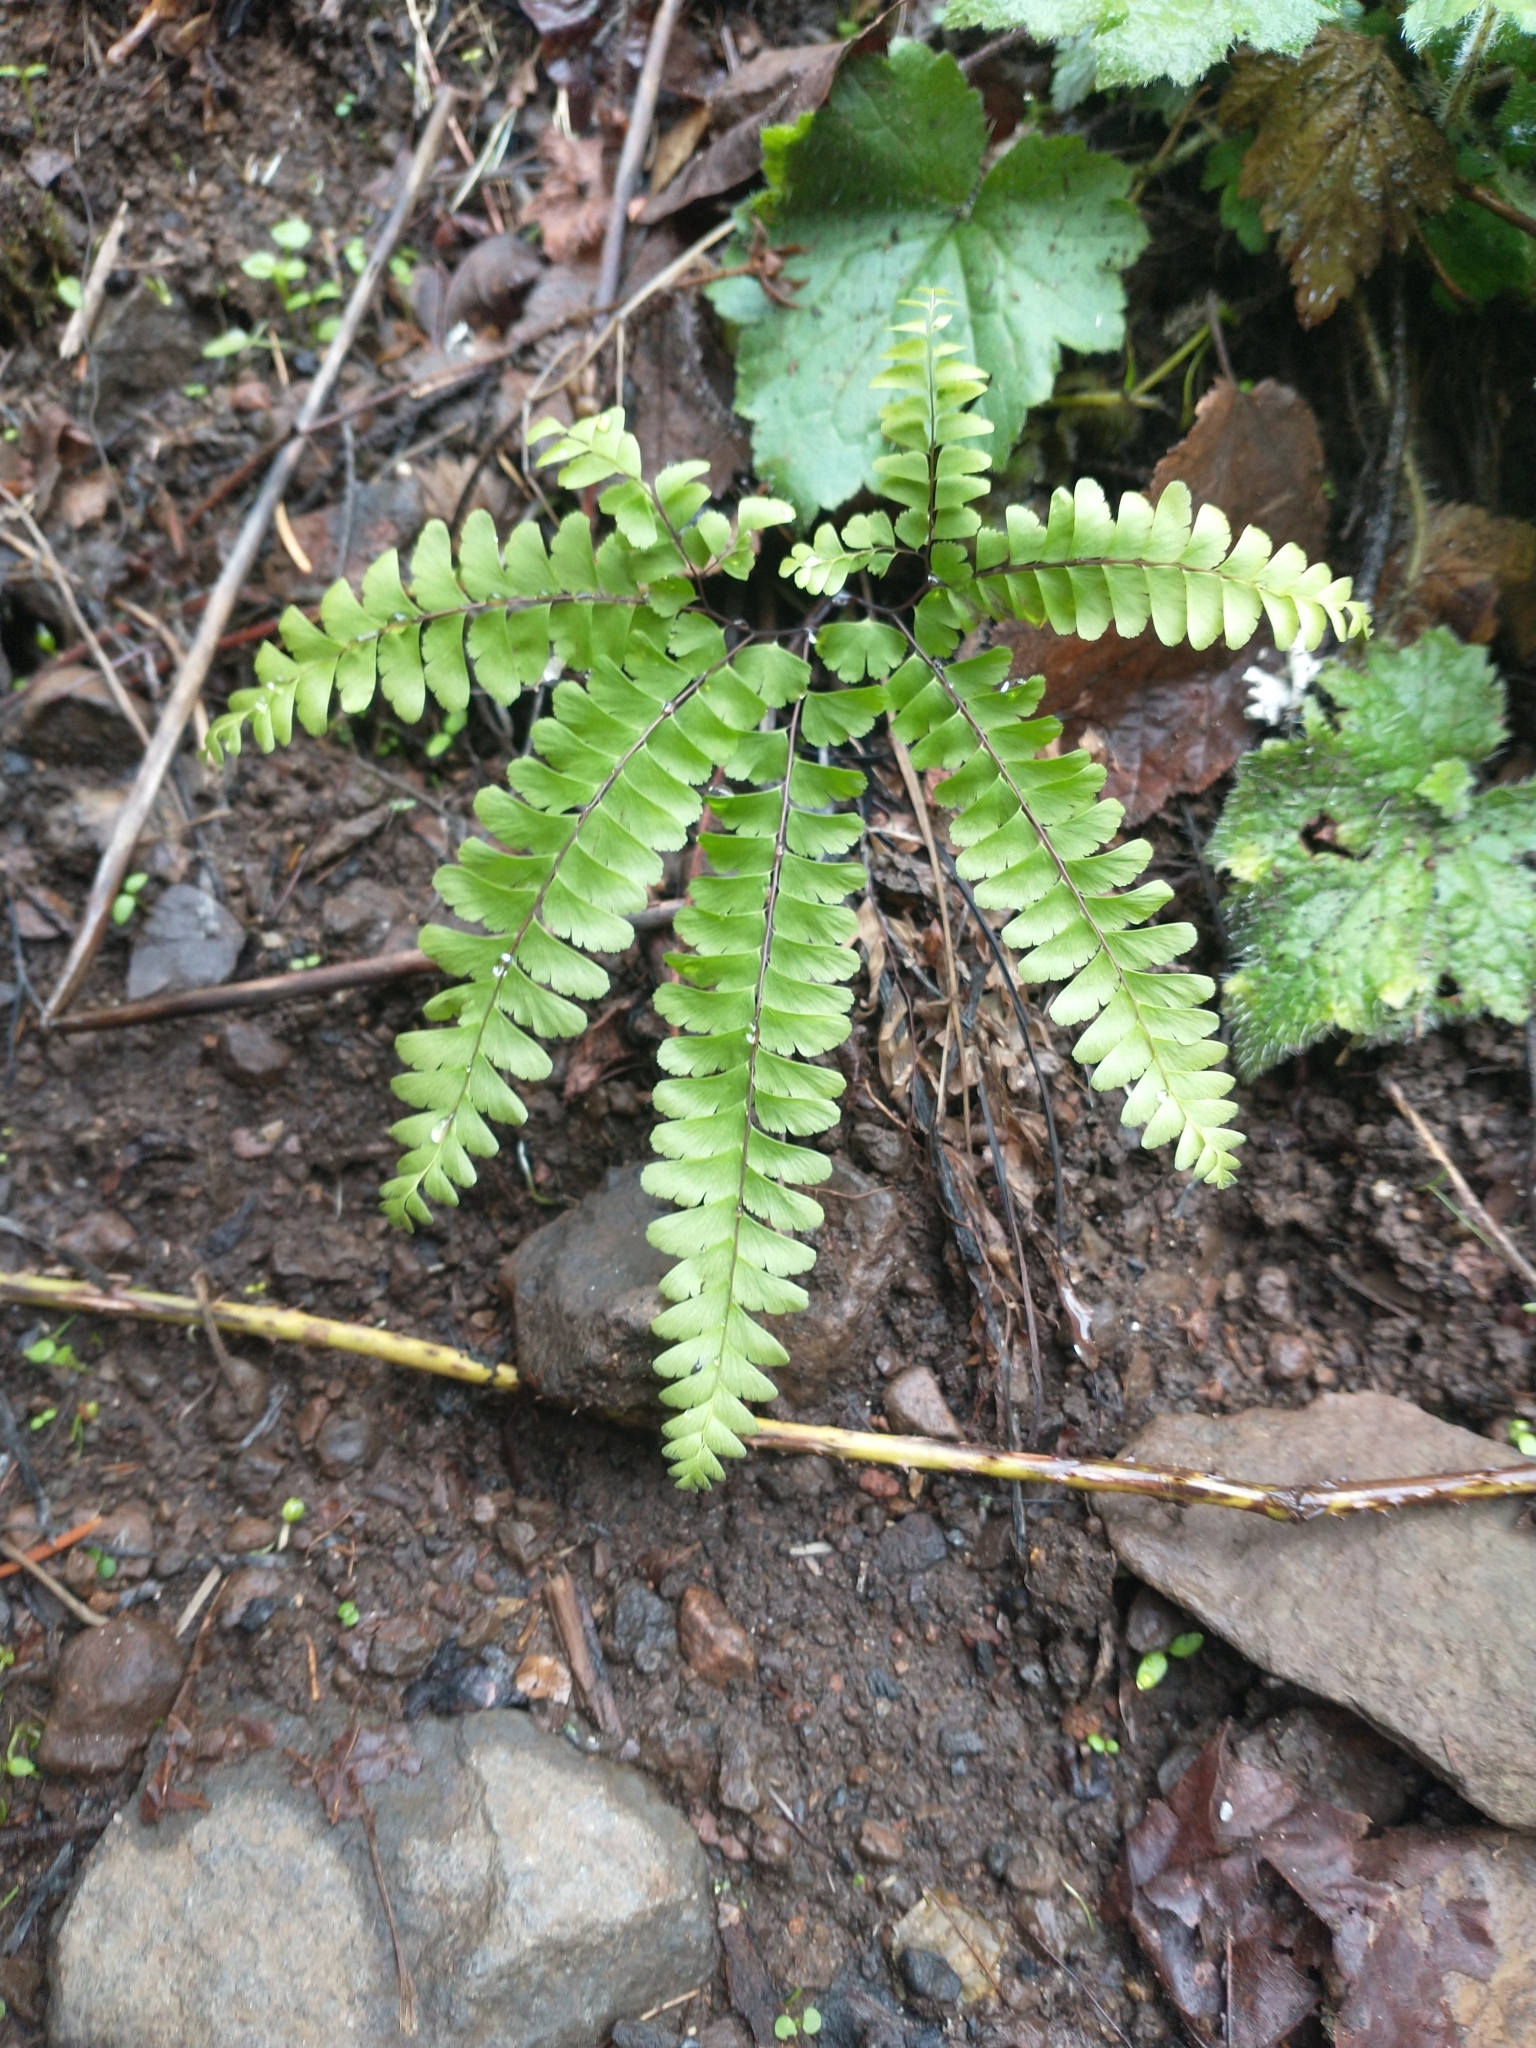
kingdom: Plantae
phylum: Tracheophyta
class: Polypodiopsida
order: Polypodiales
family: Pteridaceae
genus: Adiantum
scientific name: Adiantum aleuticum
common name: Aleutian maidenhair fern
